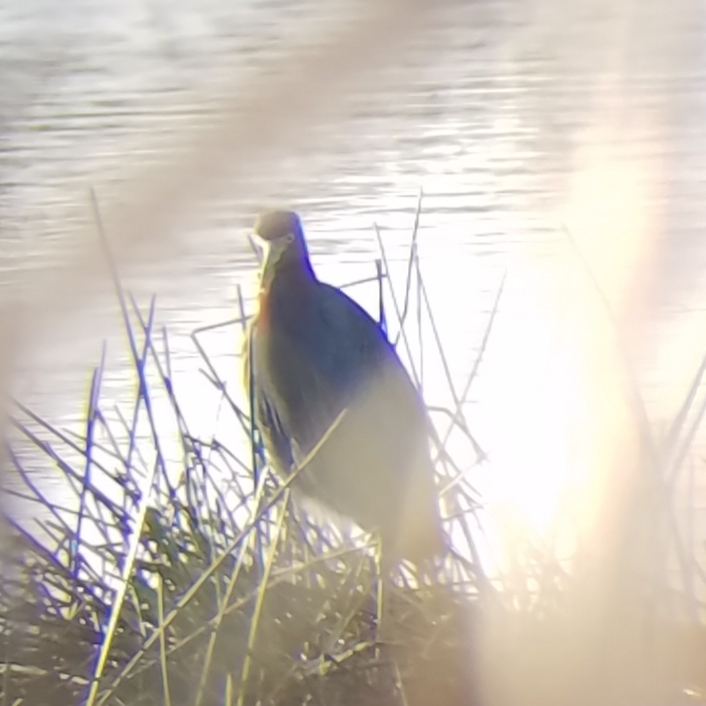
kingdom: Animalia
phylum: Chordata
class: Aves
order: Pelecaniformes
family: Ardeidae
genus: Egretta
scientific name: Egretta caerulea
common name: Little blue heron
